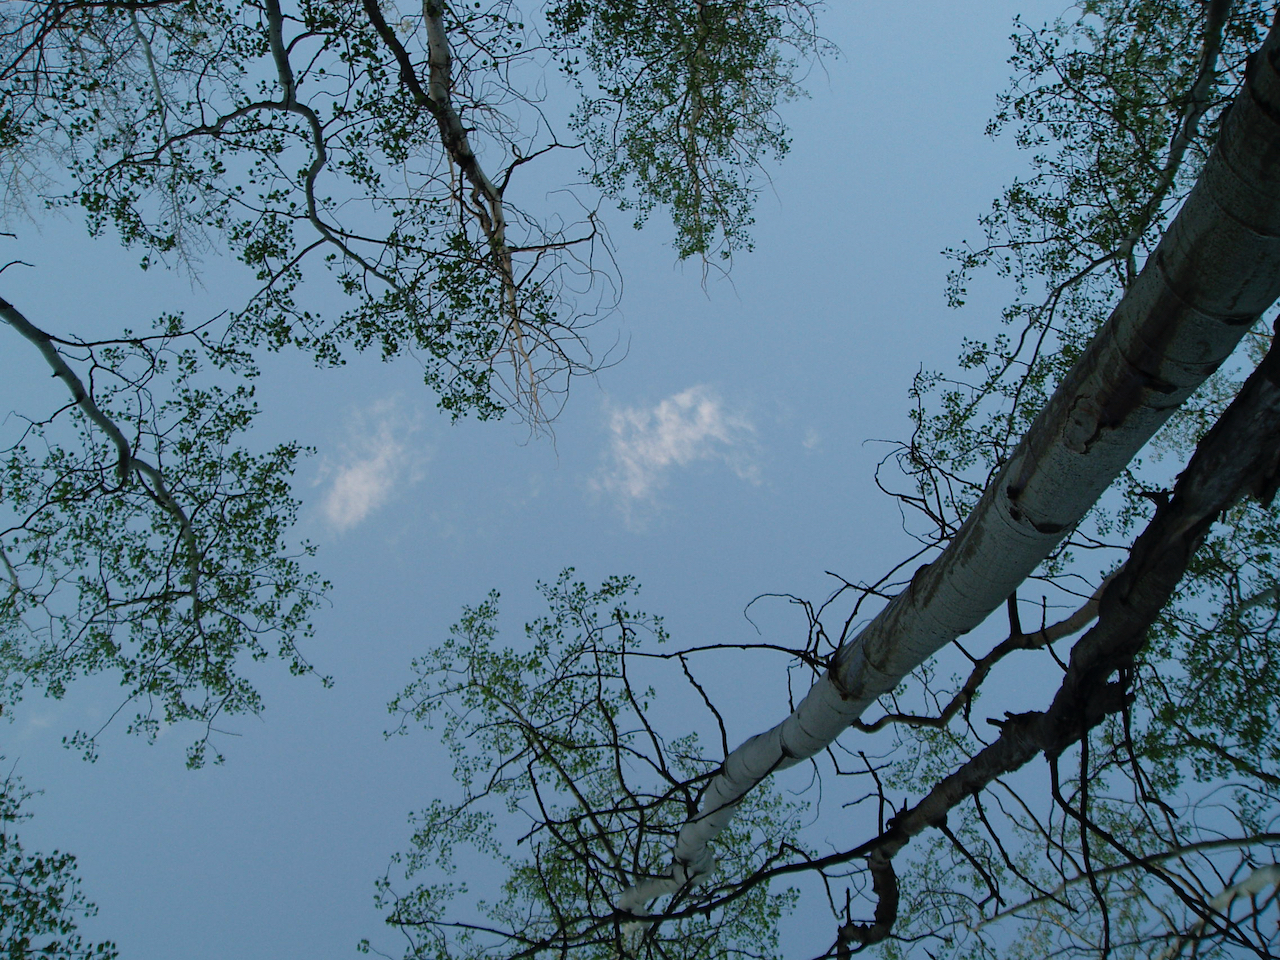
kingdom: Plantae
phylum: Tracheophyta
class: Magnoliopsida
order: Malpighiales
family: Salicaceae
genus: Populus
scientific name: Populus tremuloides
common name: Quaking aspen
